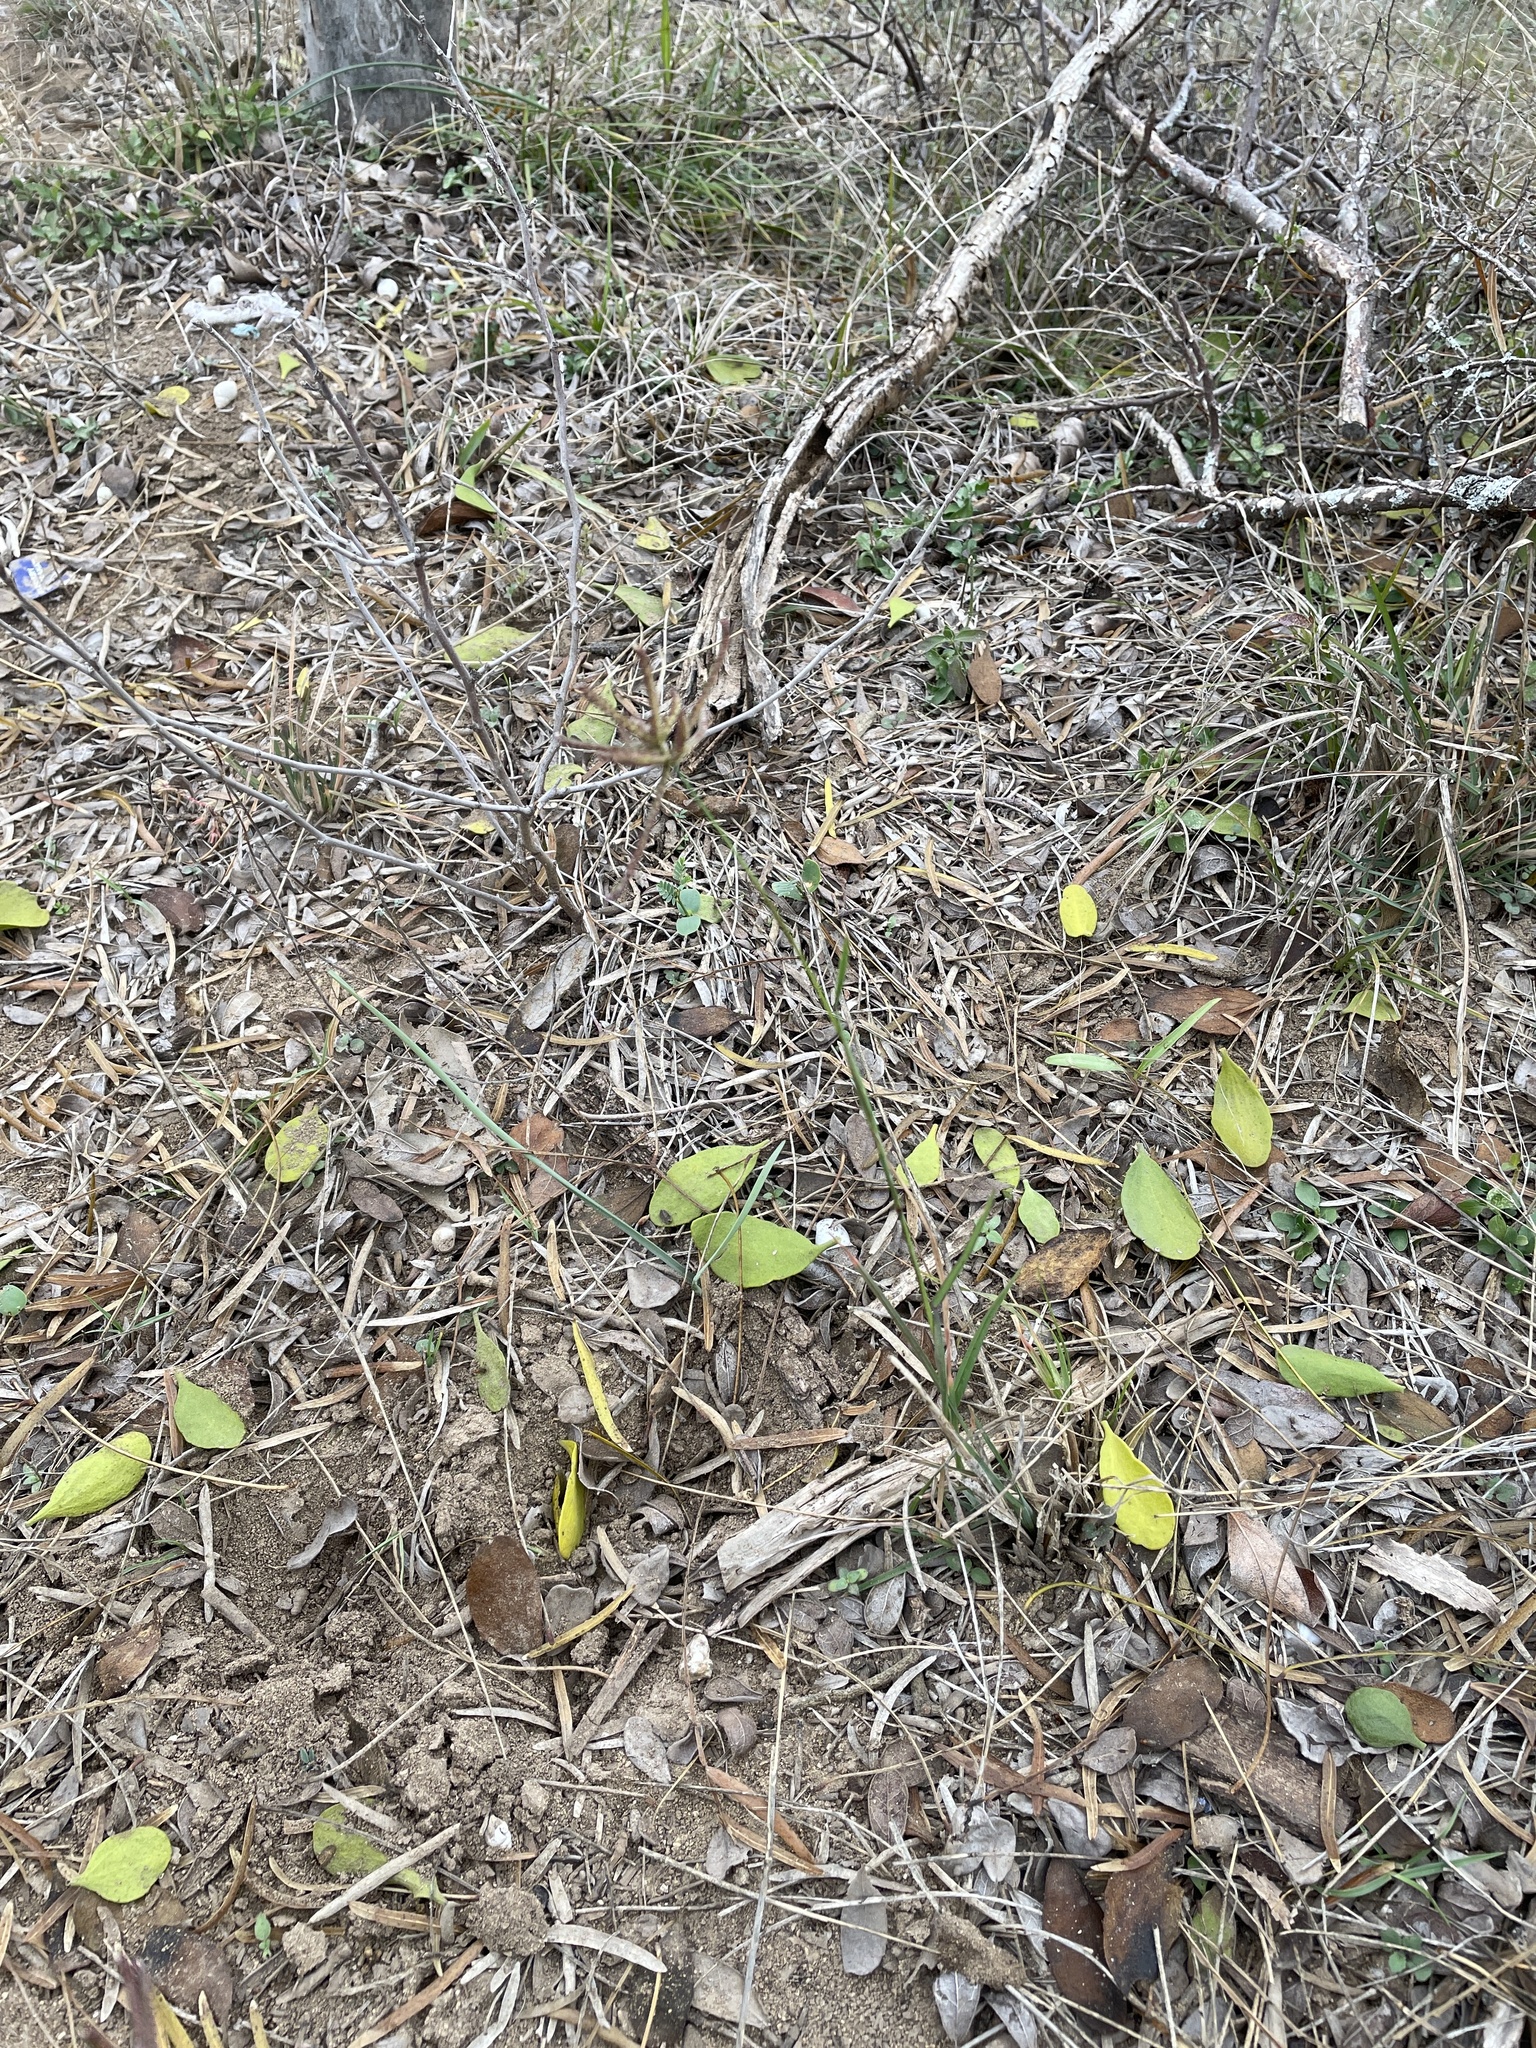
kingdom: Plantae
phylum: Tracheophyta
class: Liliopsida
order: Poales
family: Poaceae
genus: Chloris
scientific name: Chloris cucullata
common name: Hooded windmill grass
